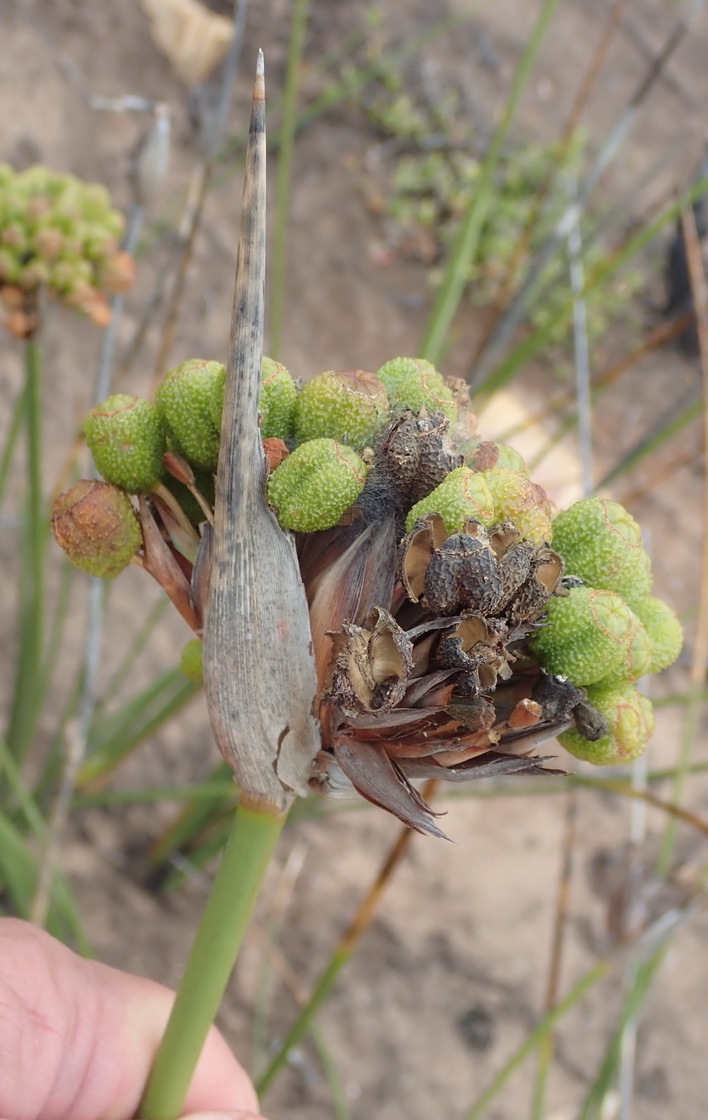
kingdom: Plantae
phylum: Tracheophyta
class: Liliopsida
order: Asparagales
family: Iridaceae
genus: Bobartia
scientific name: Bobartia robusta
